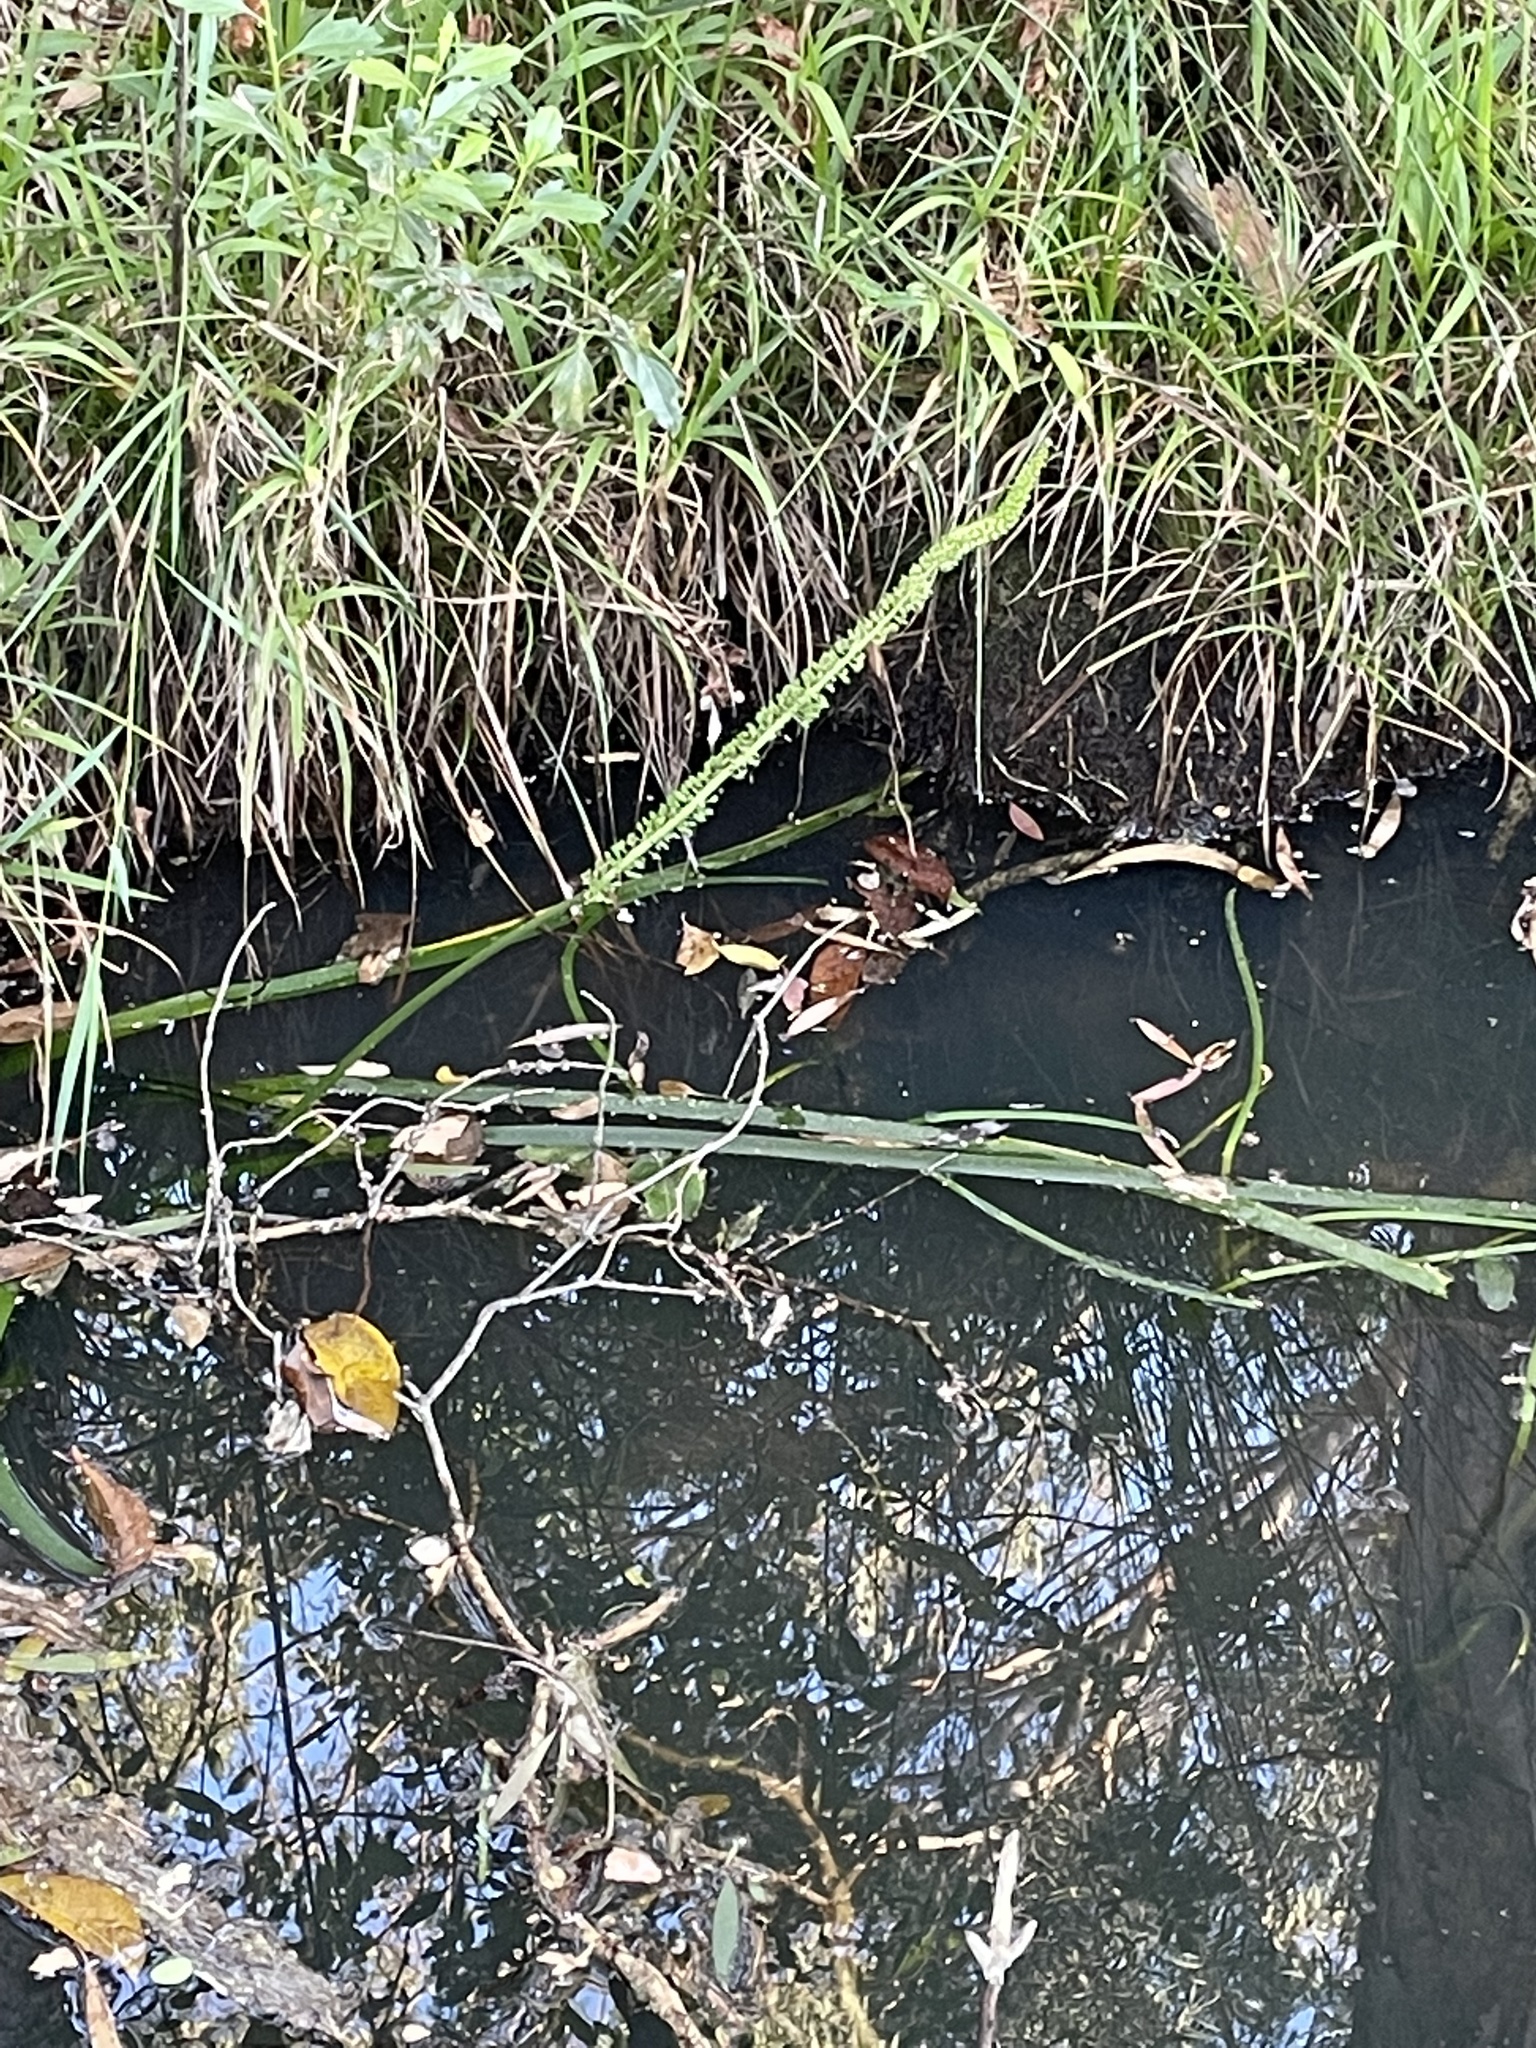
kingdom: Plantae
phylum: Tracheophyta
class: Liliopsida
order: Alismatales
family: Juncaginaceae
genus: Cycnogeton
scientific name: Cycnogeton procerum
